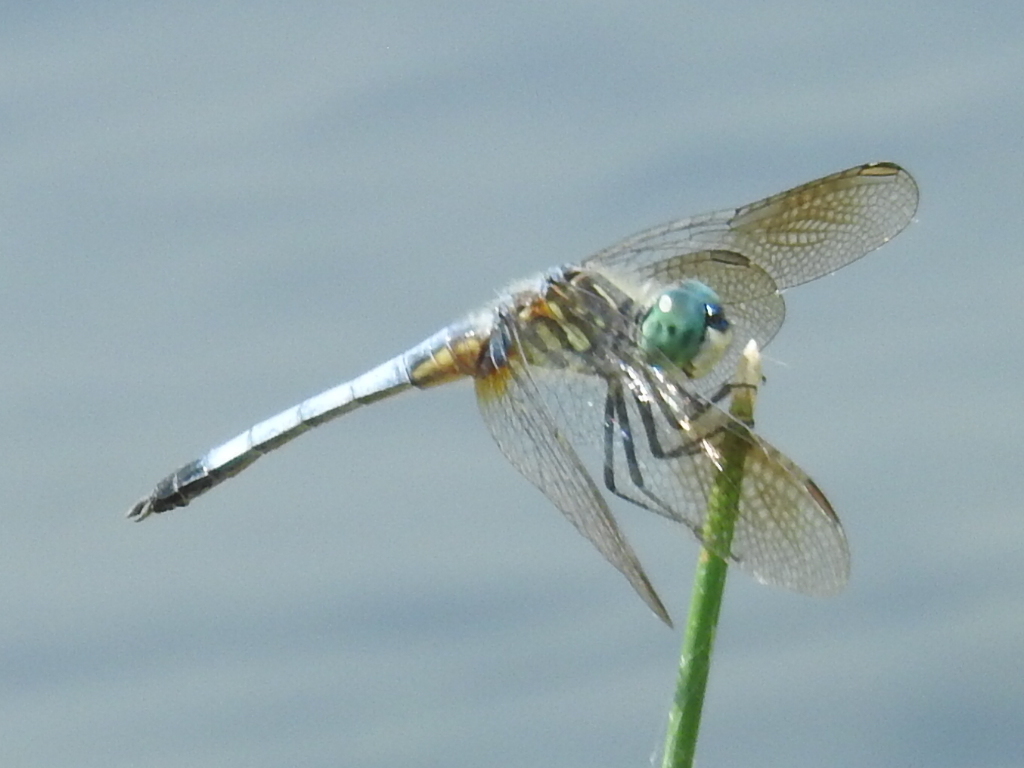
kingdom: Animalia
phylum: Arthropoda
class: Insecta
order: Odonata
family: Libellulidae
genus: Pachydiplax
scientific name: Pachydiplax longipennis
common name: Blue dasher
